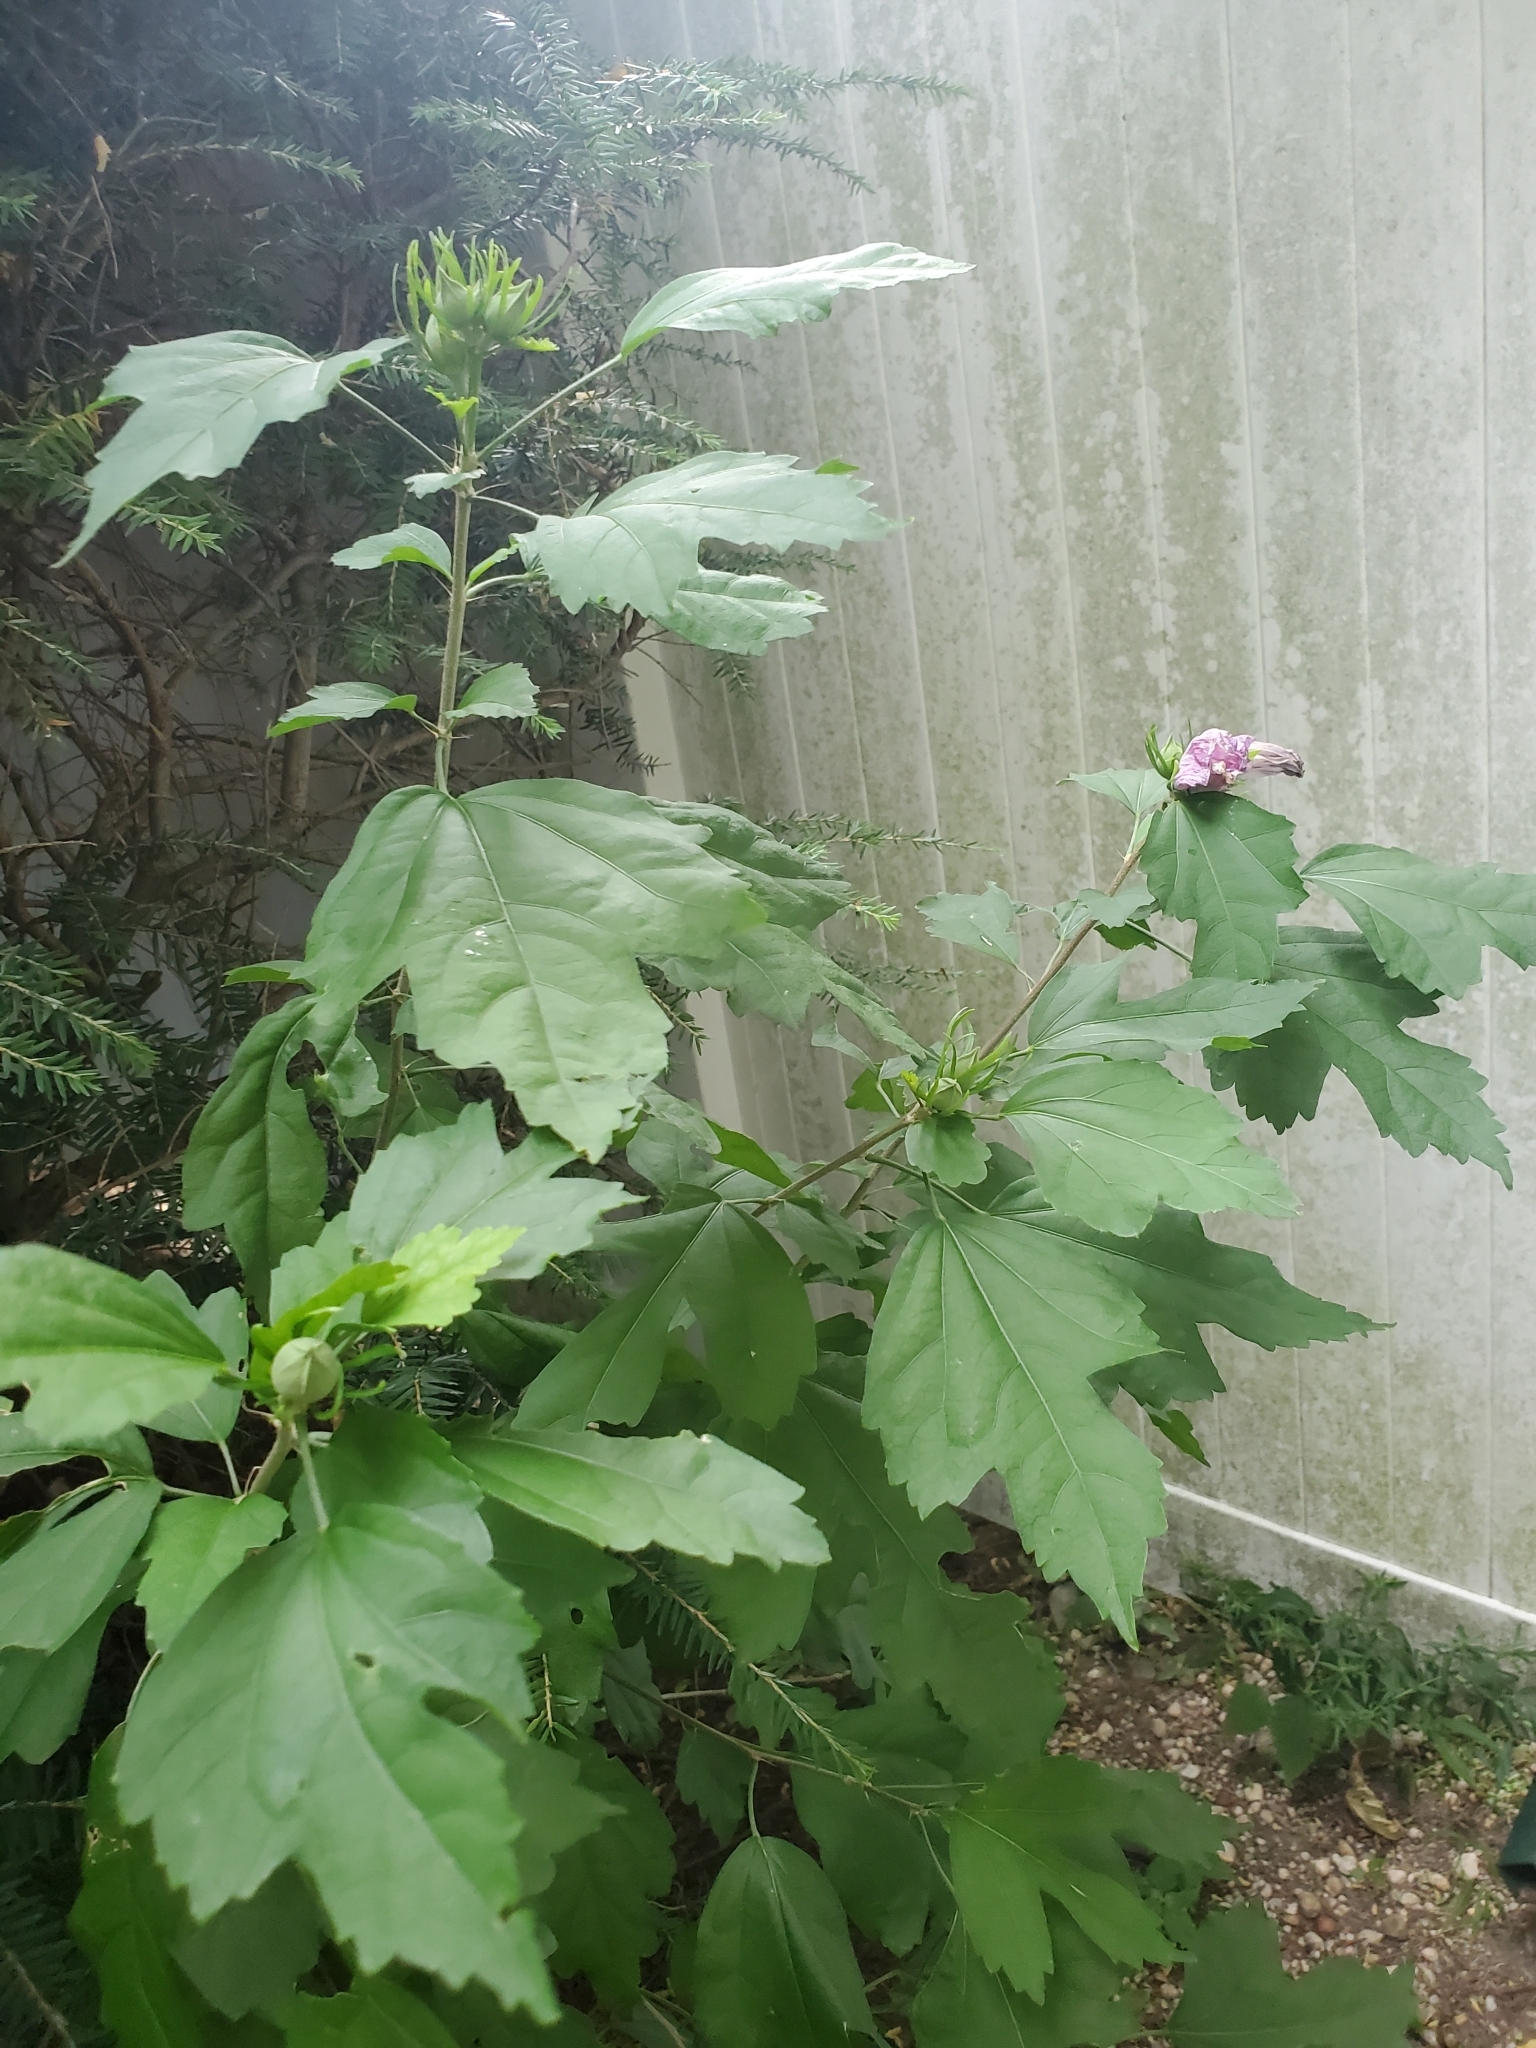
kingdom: Plantae
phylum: Tracheophyta
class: Magnoliopsida
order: Malvales
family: Malvaceae
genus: Hibiscus
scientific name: Hibiscus syriacus
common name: Syrian ketmia
